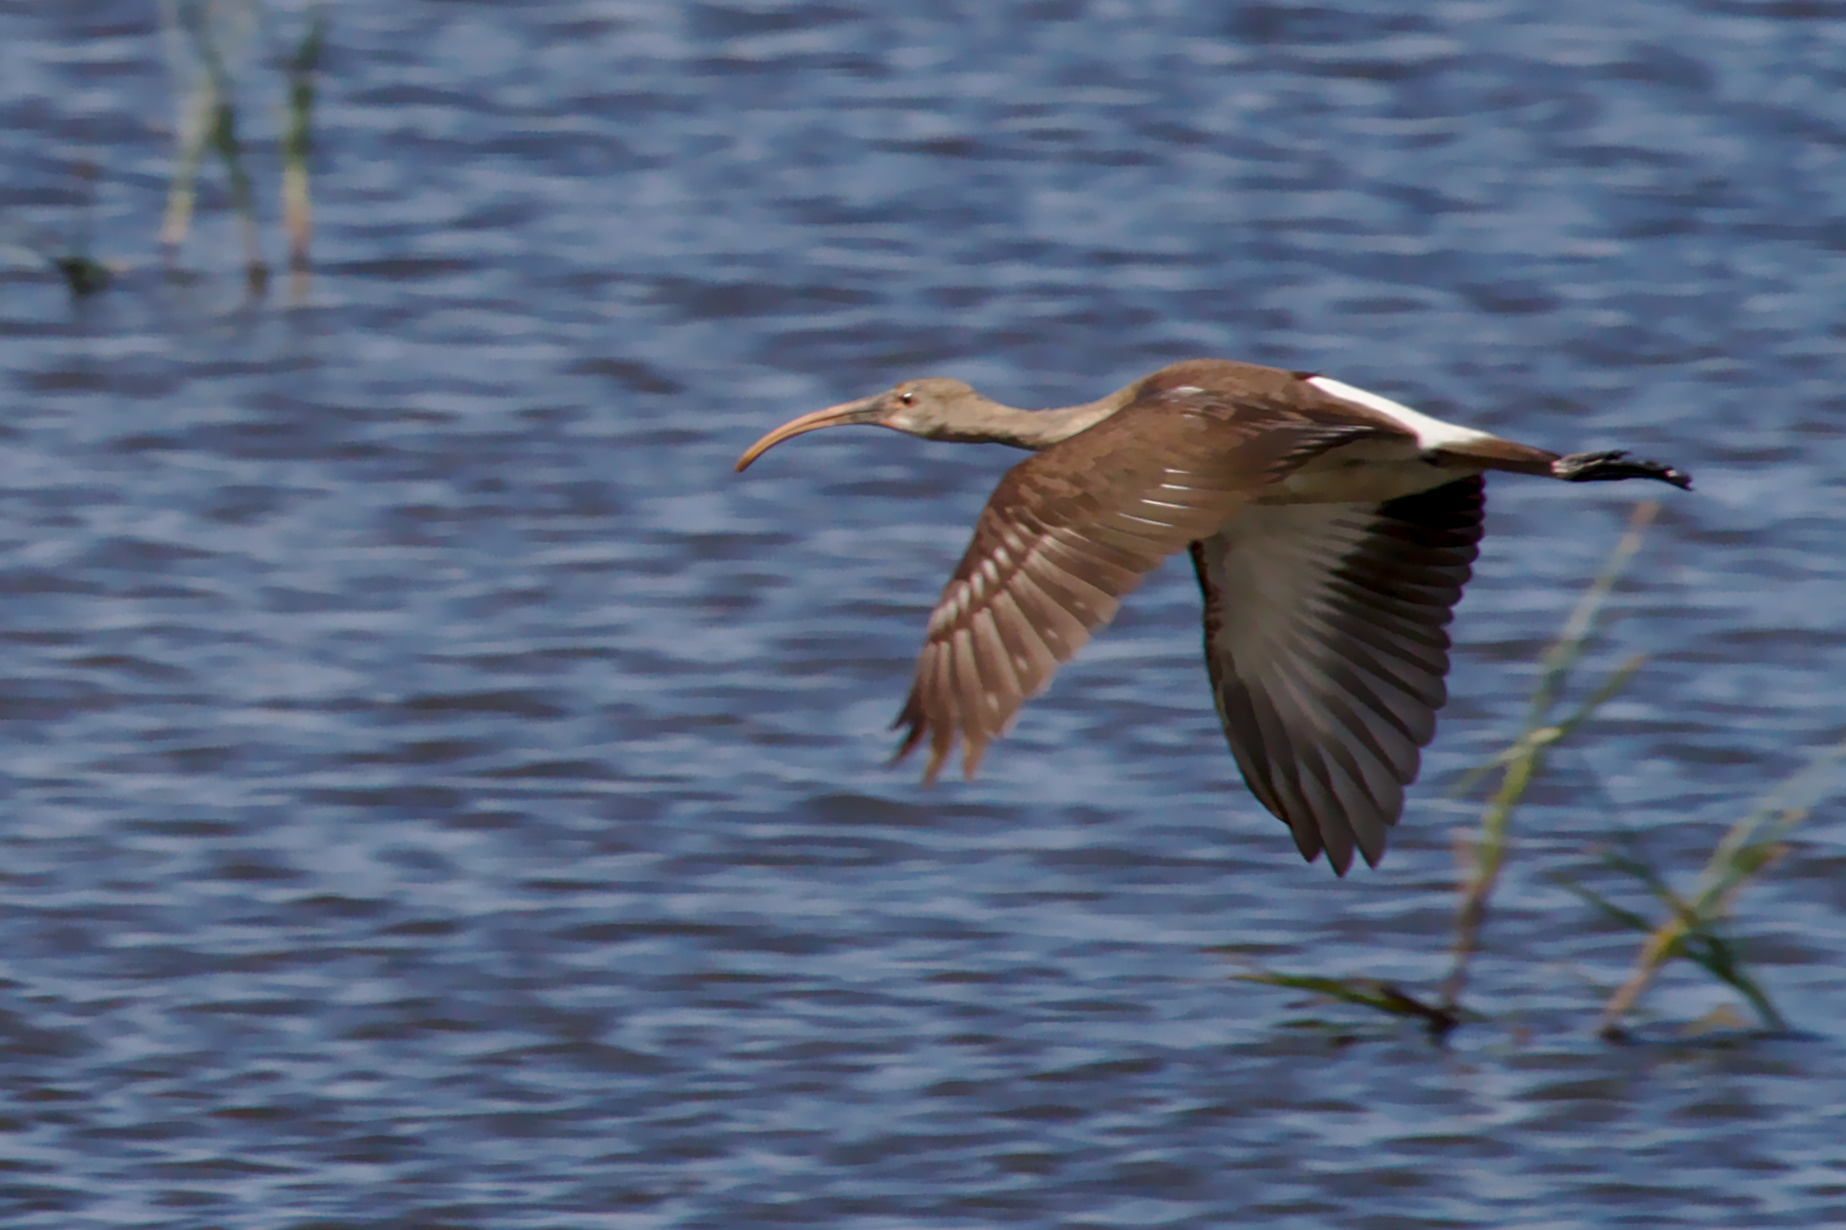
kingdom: Animalia
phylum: Chordata
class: Aves
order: Pelecaniformes
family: Threskiornithidae
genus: Eudocimus
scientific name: Eudocimus albus
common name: White ibis
